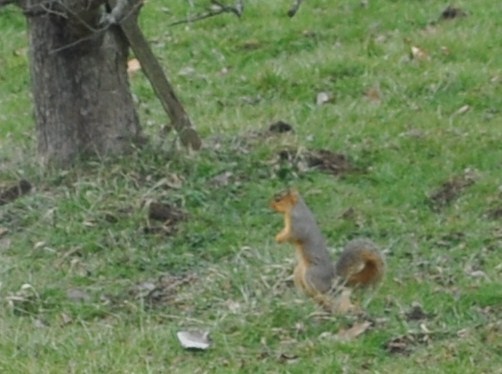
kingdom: Animalia
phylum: Chordata
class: Mammalia
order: Rodentia
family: Sciuridae
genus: Sciurus
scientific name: Sciurus niger
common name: Fox squirrel
